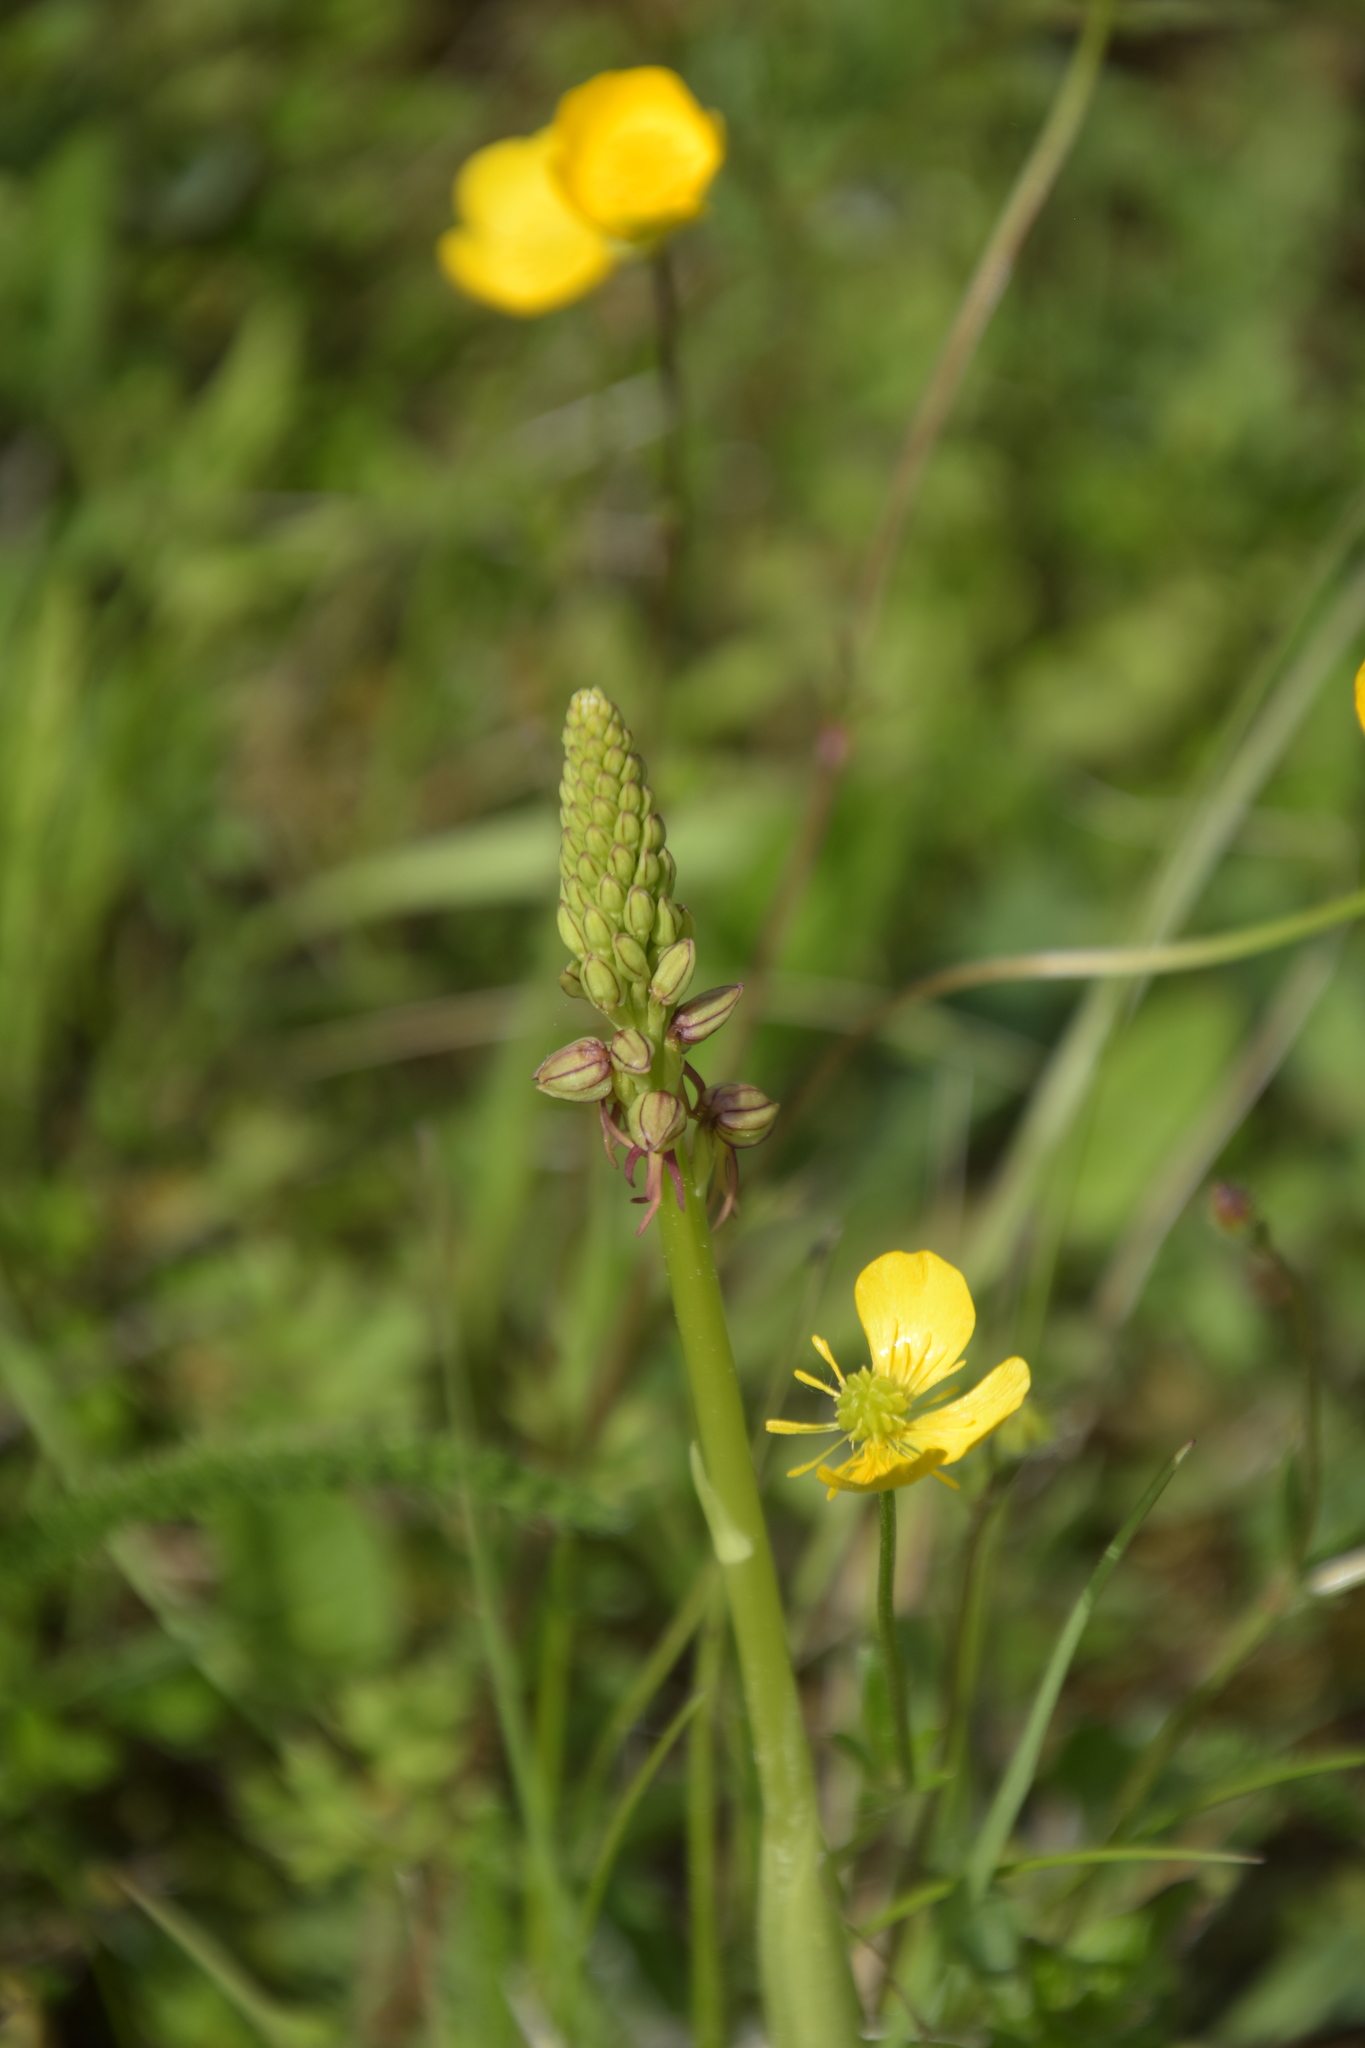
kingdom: Plantae
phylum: Tracheophyta
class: Liliopsida
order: Asparagales
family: Orchidaceae
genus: Orchis
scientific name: Orchis anthropophora
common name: Man orchid
